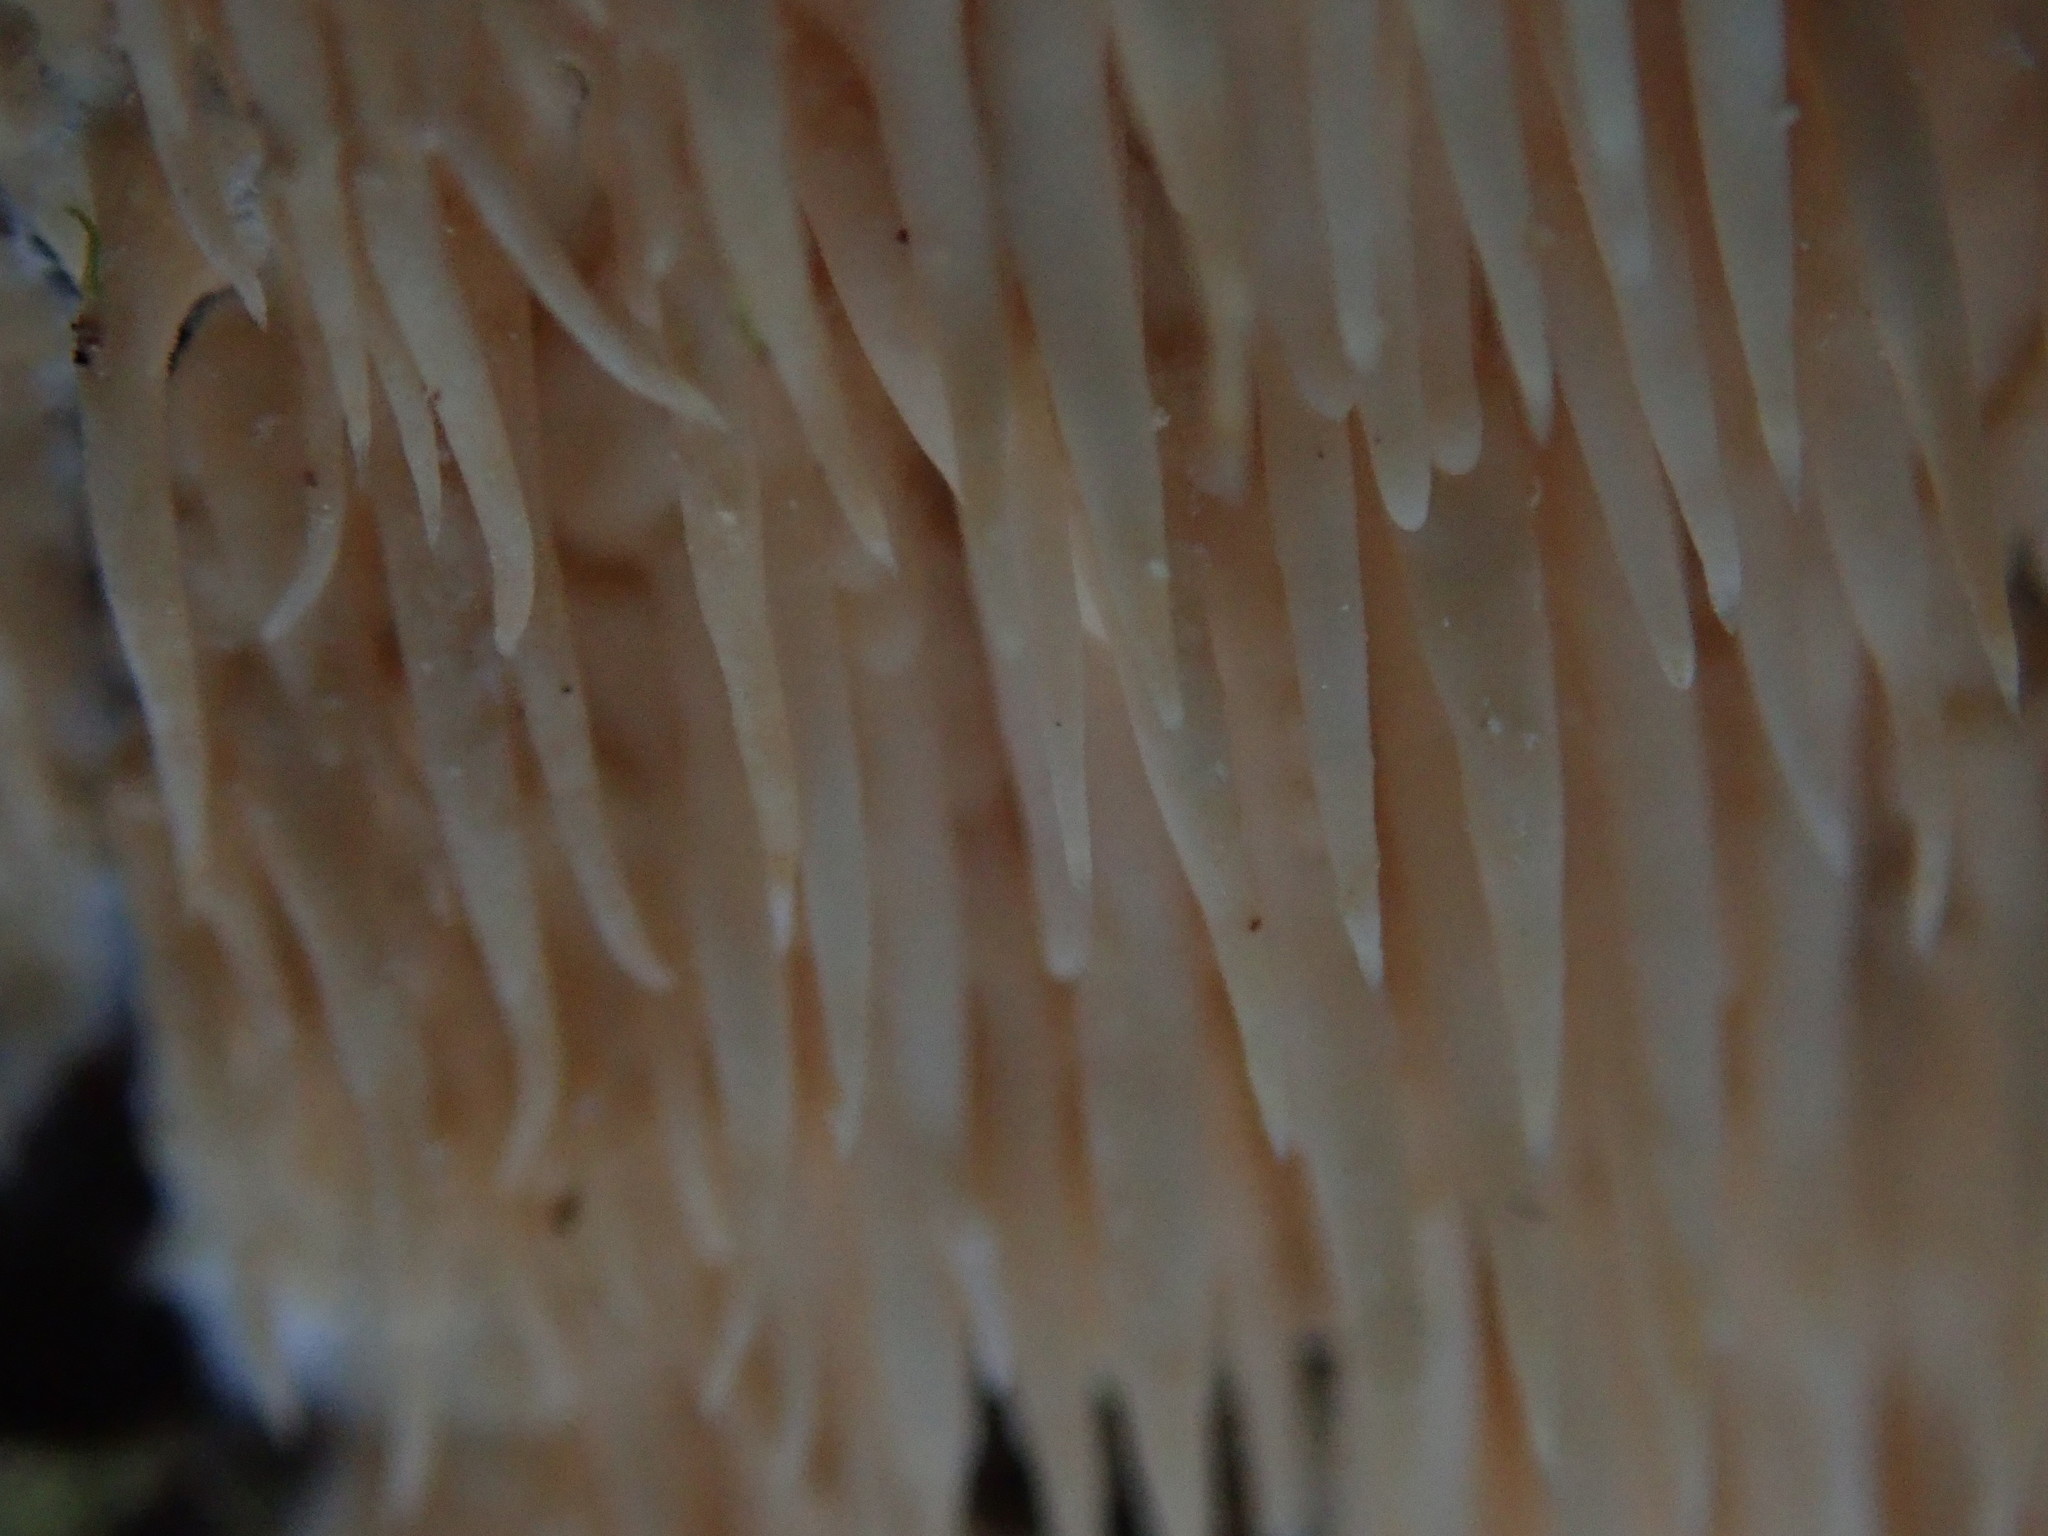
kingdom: Fungi
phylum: Basidiomycota
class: Agaricomycetes
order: Agaricales
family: Radulomycetaceae
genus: Radulomyces
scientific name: Radulomyces copelandii
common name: Asian beauty
